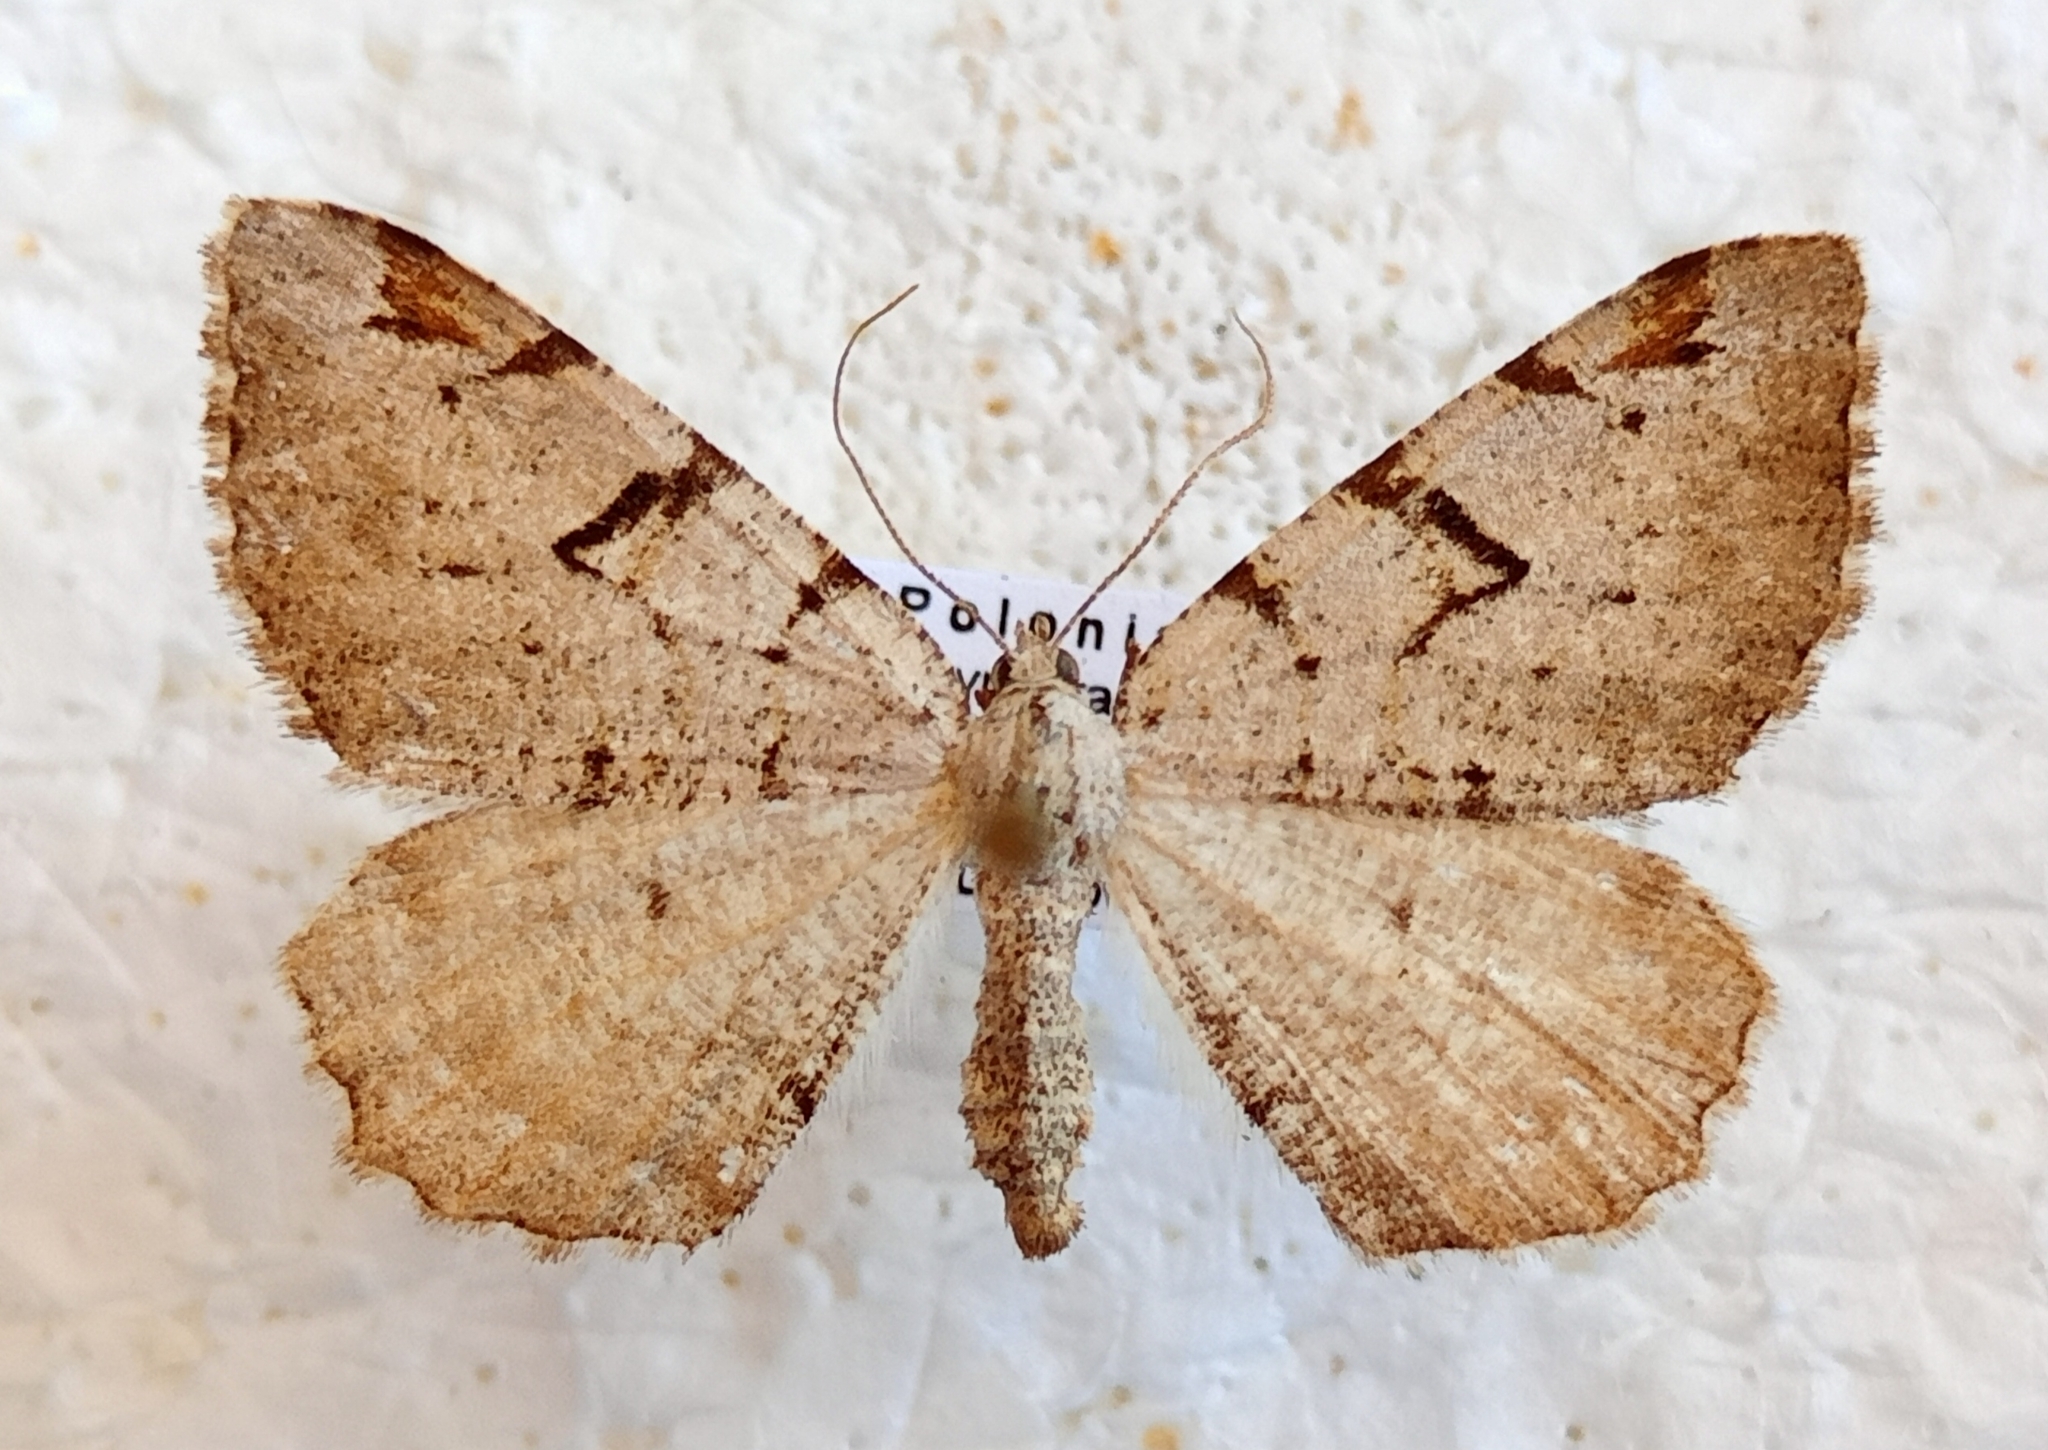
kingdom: Animalia
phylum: Arthropoda
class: Insecta
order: Lepidoptera
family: Geometridae
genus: Macaria
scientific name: Macaria wauaria
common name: V-moth
